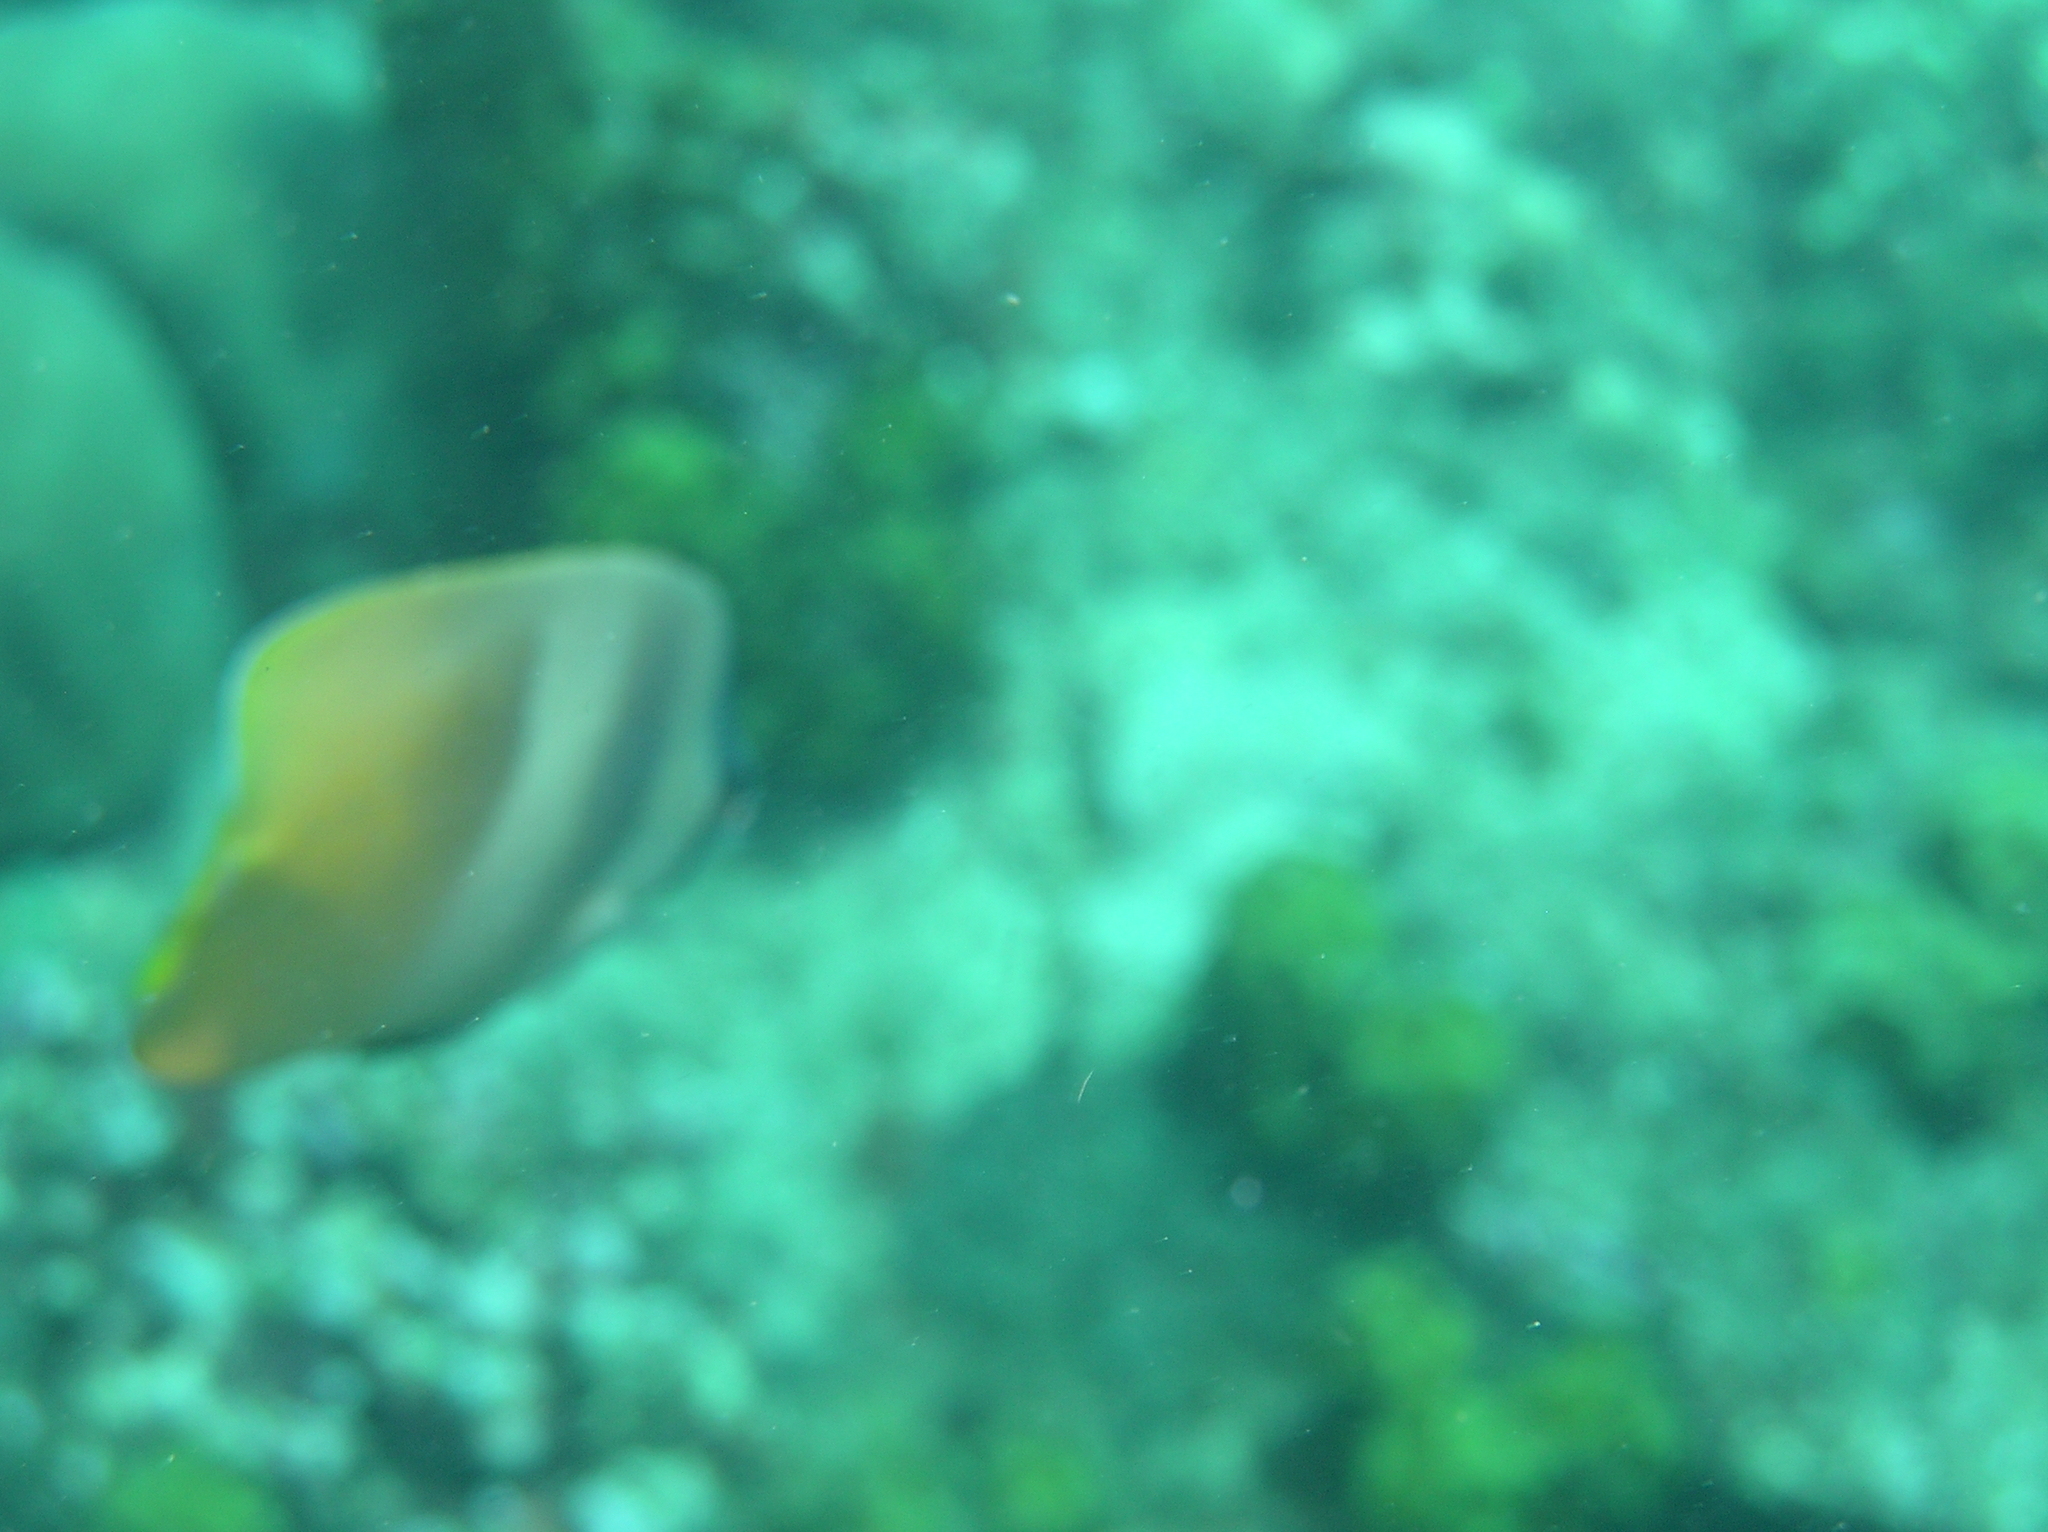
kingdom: Animalia
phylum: Chordata
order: Perciformes
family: Chaetodontidae
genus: Chaetodon
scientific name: Chaetodon kleinii
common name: Klein's butterflyfish
